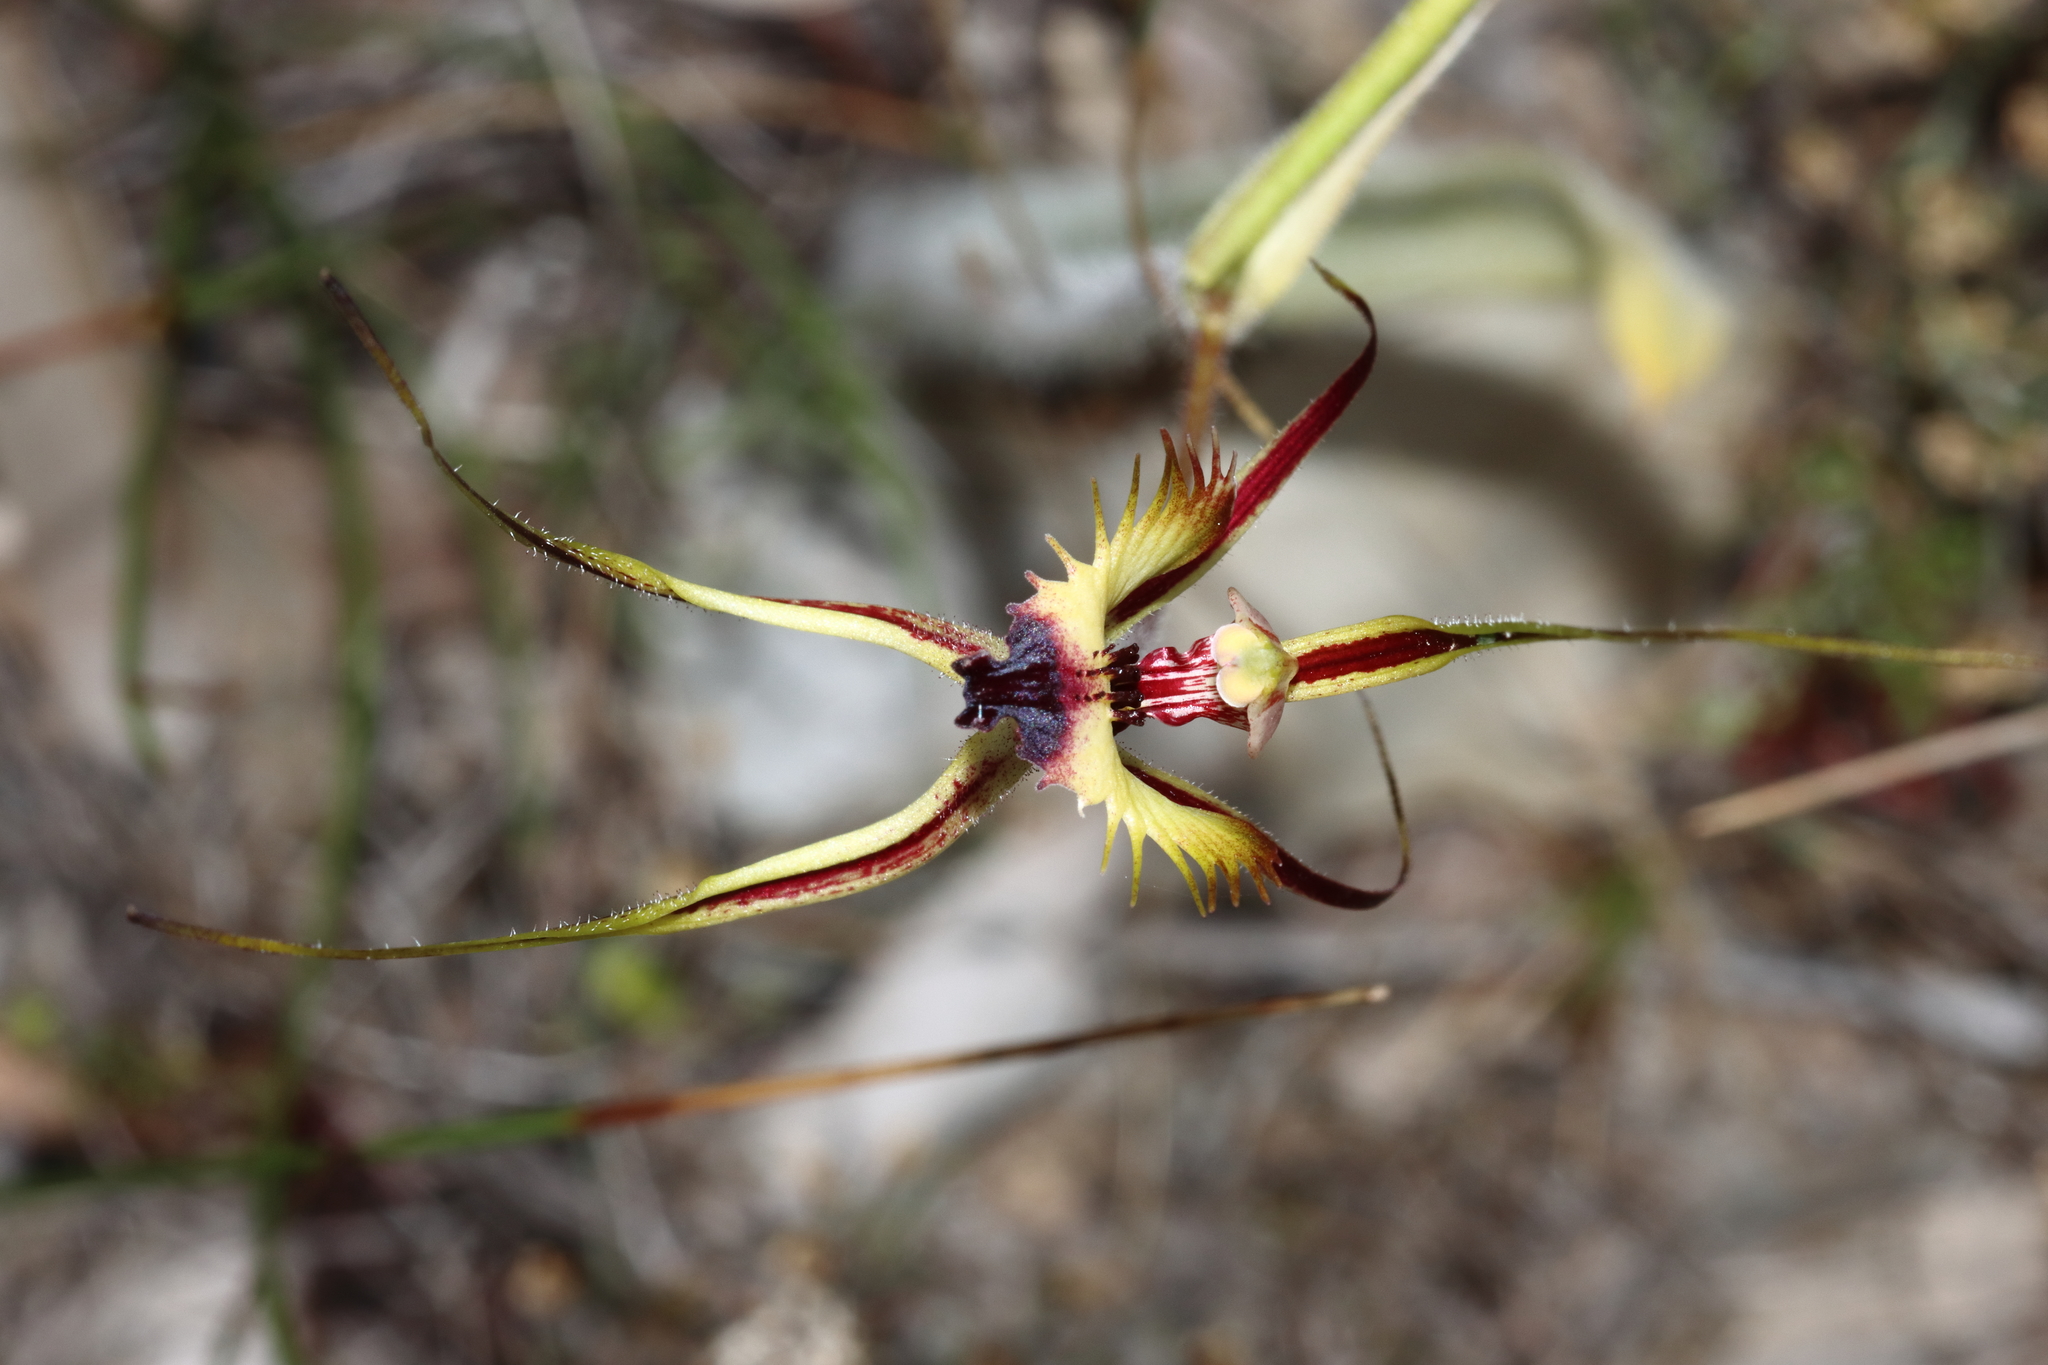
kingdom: Plantae
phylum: Tracheophyta
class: Liliopsida
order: Asparagales
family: Orchidaceae
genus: Caladenia
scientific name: Caladenia falcata
